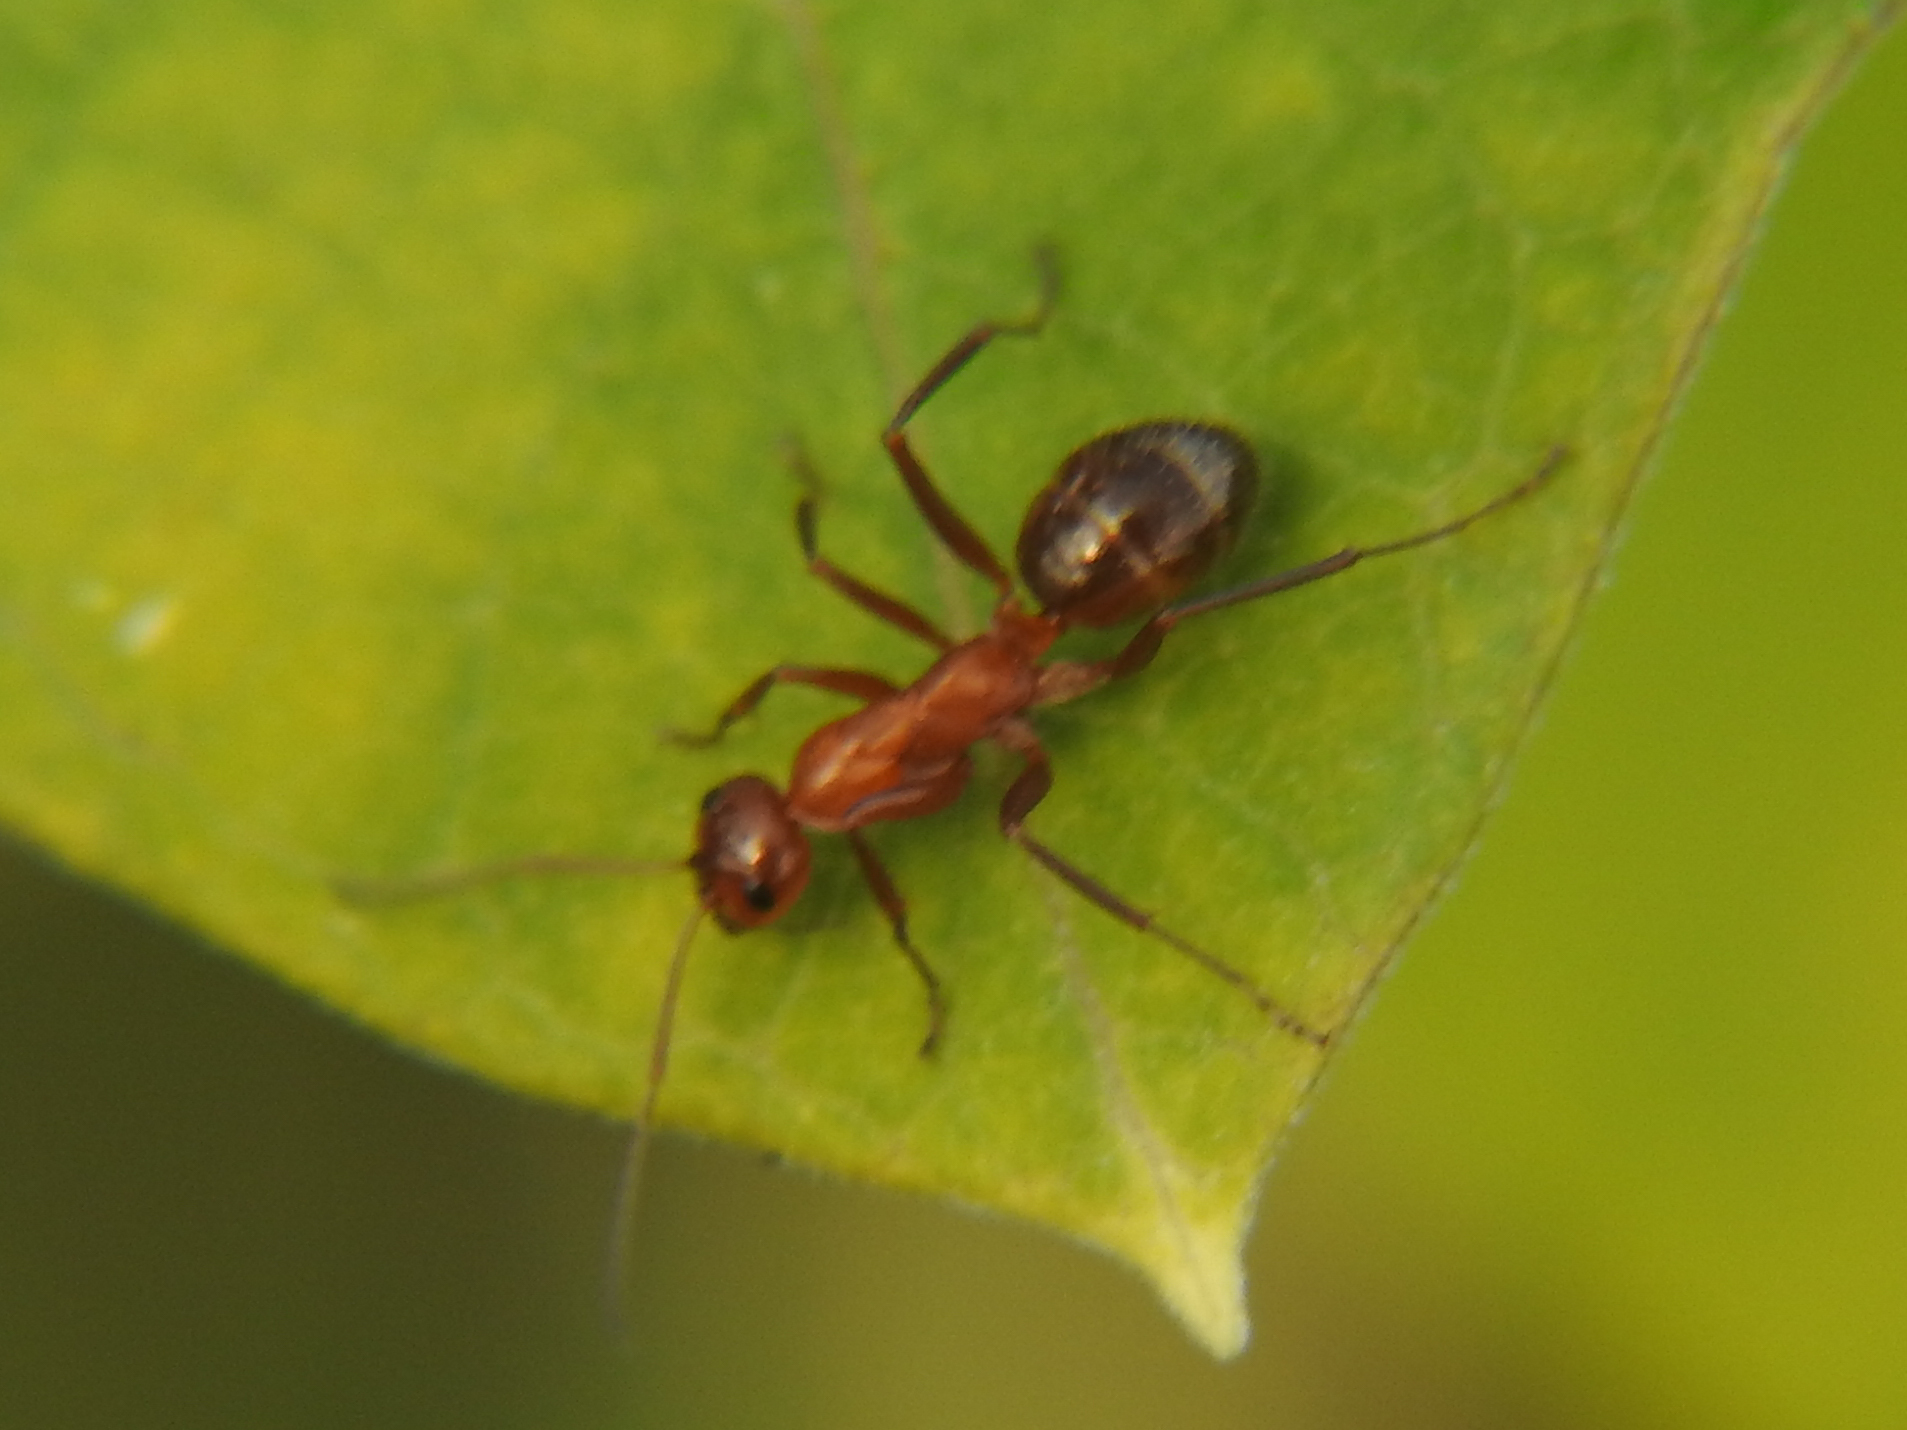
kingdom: Animalia
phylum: Arthropoda
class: Insecta
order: Hymenoptera
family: Formicidae
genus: Formica
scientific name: Formica pallidefulva
